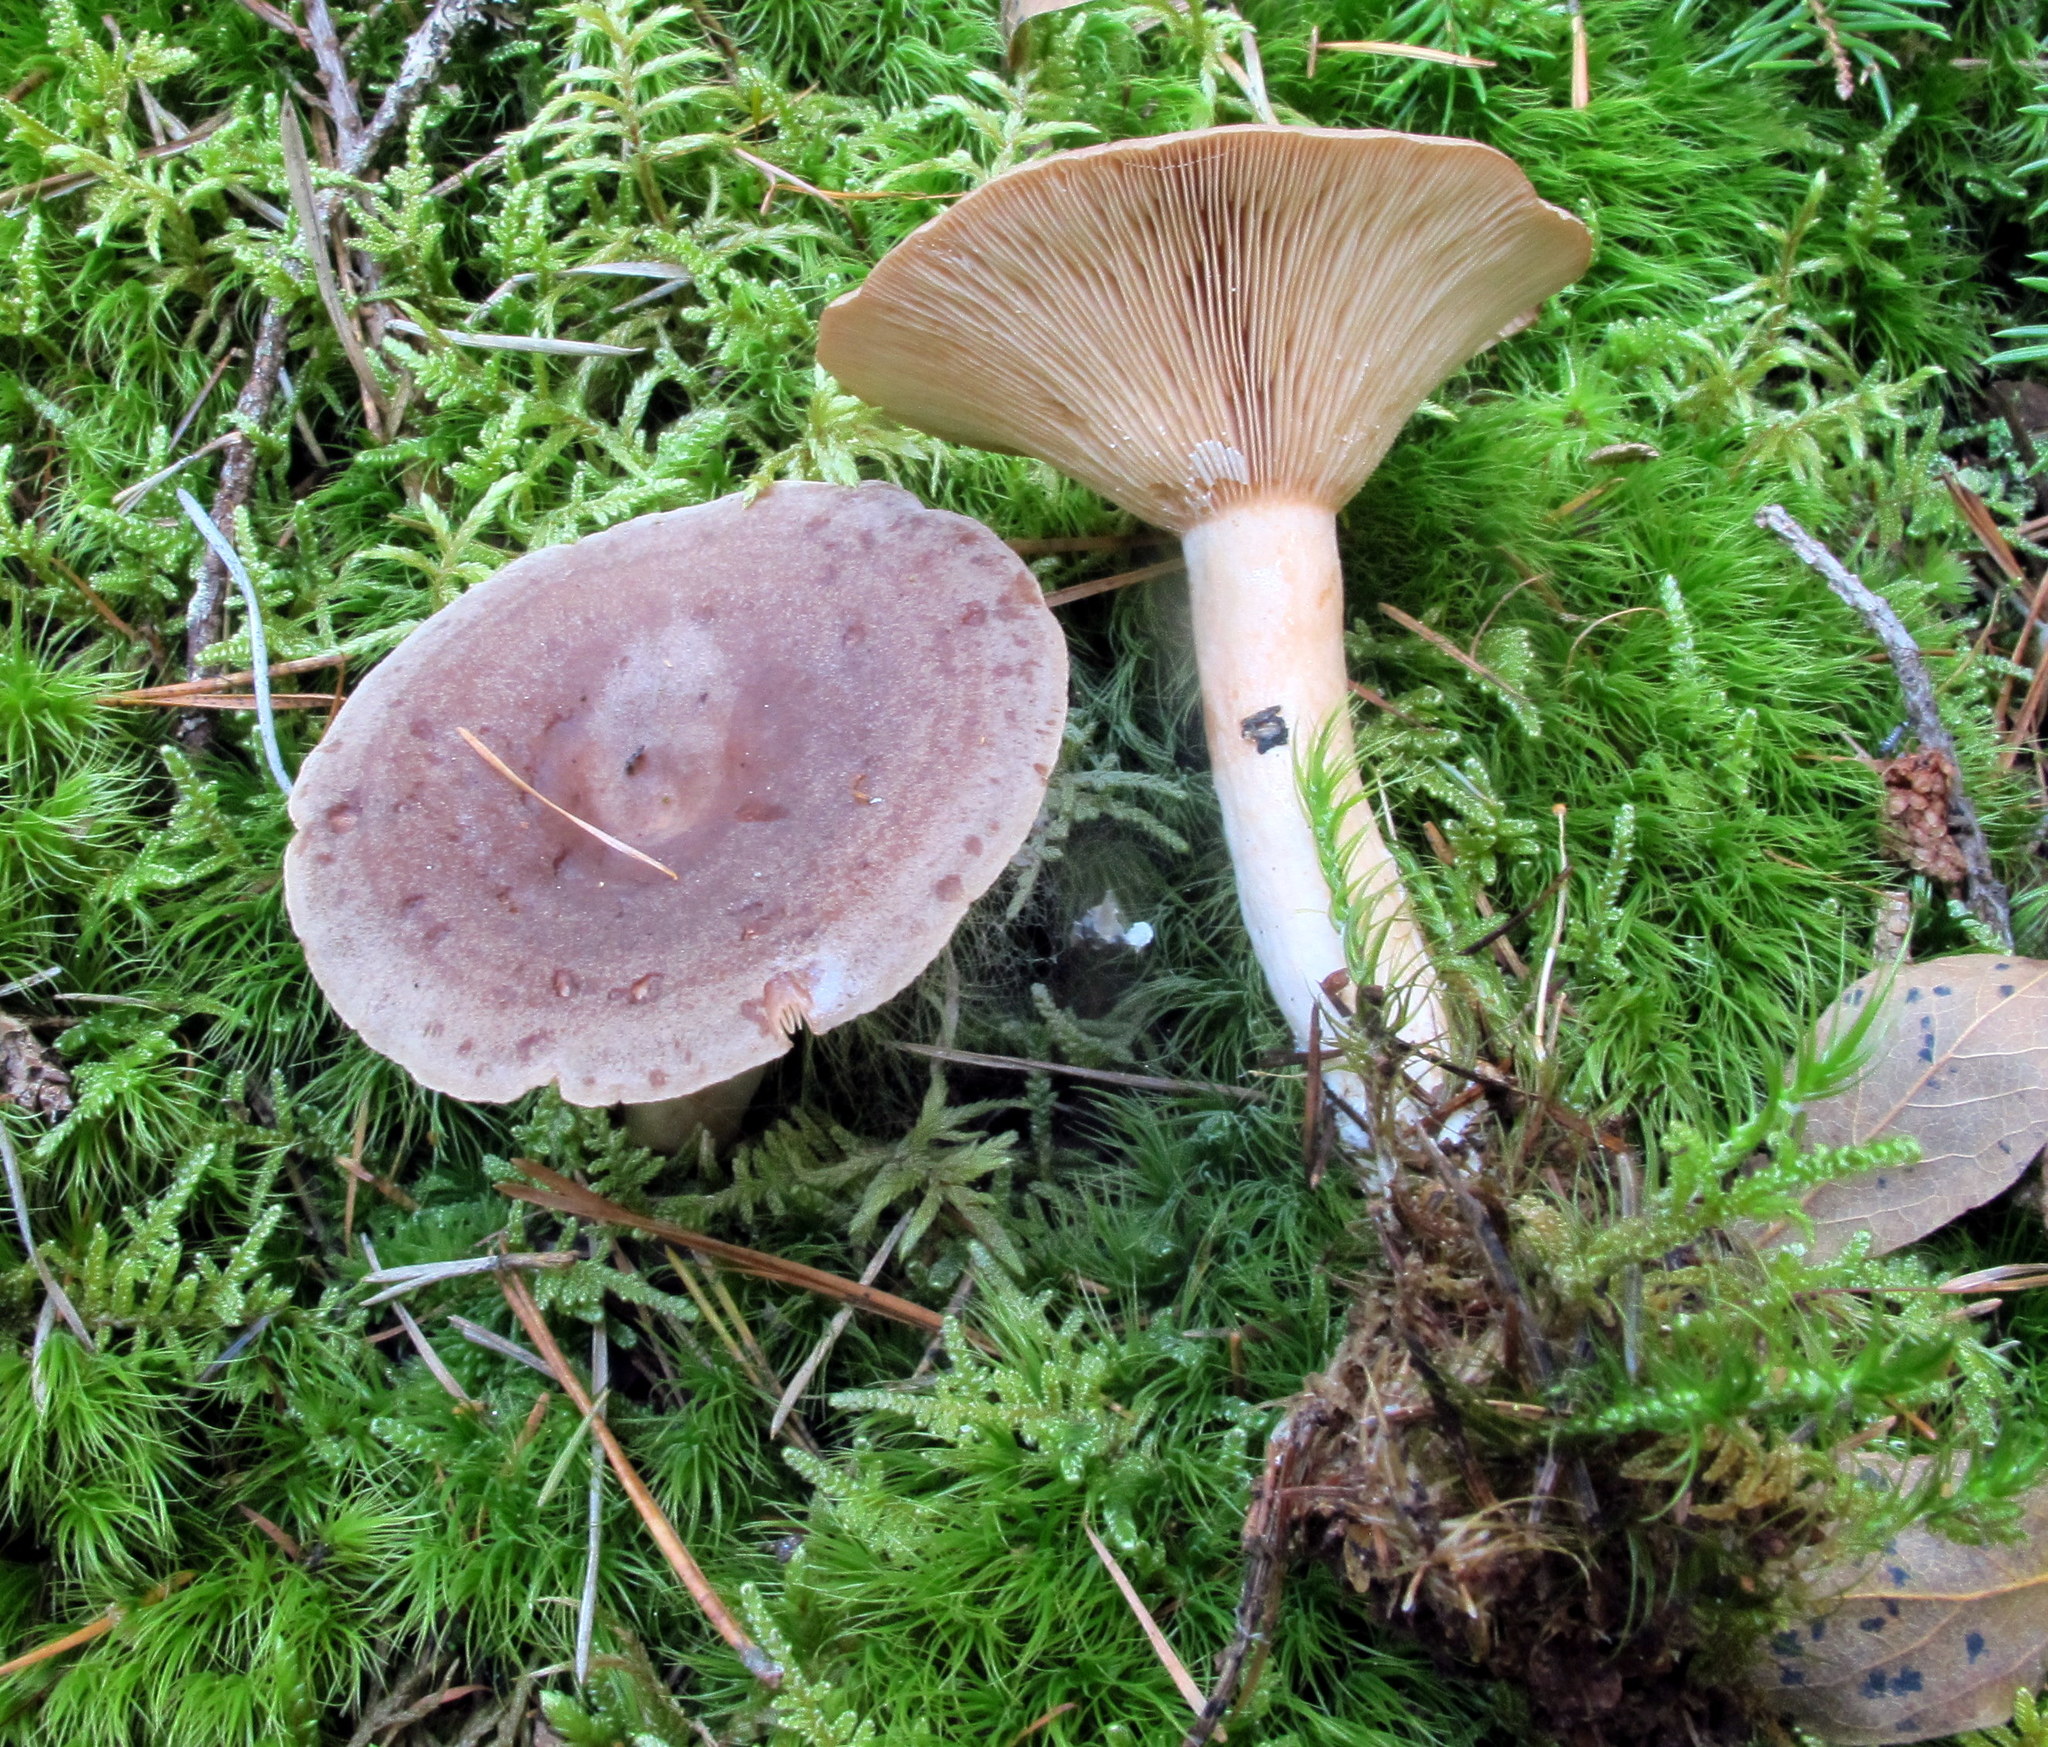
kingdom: Fungi
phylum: Basidiomycota
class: Agaricomycetes
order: Russulales
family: Russulaceae
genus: Lactarius
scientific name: Lactarius mammosus
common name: Pap milkcap
